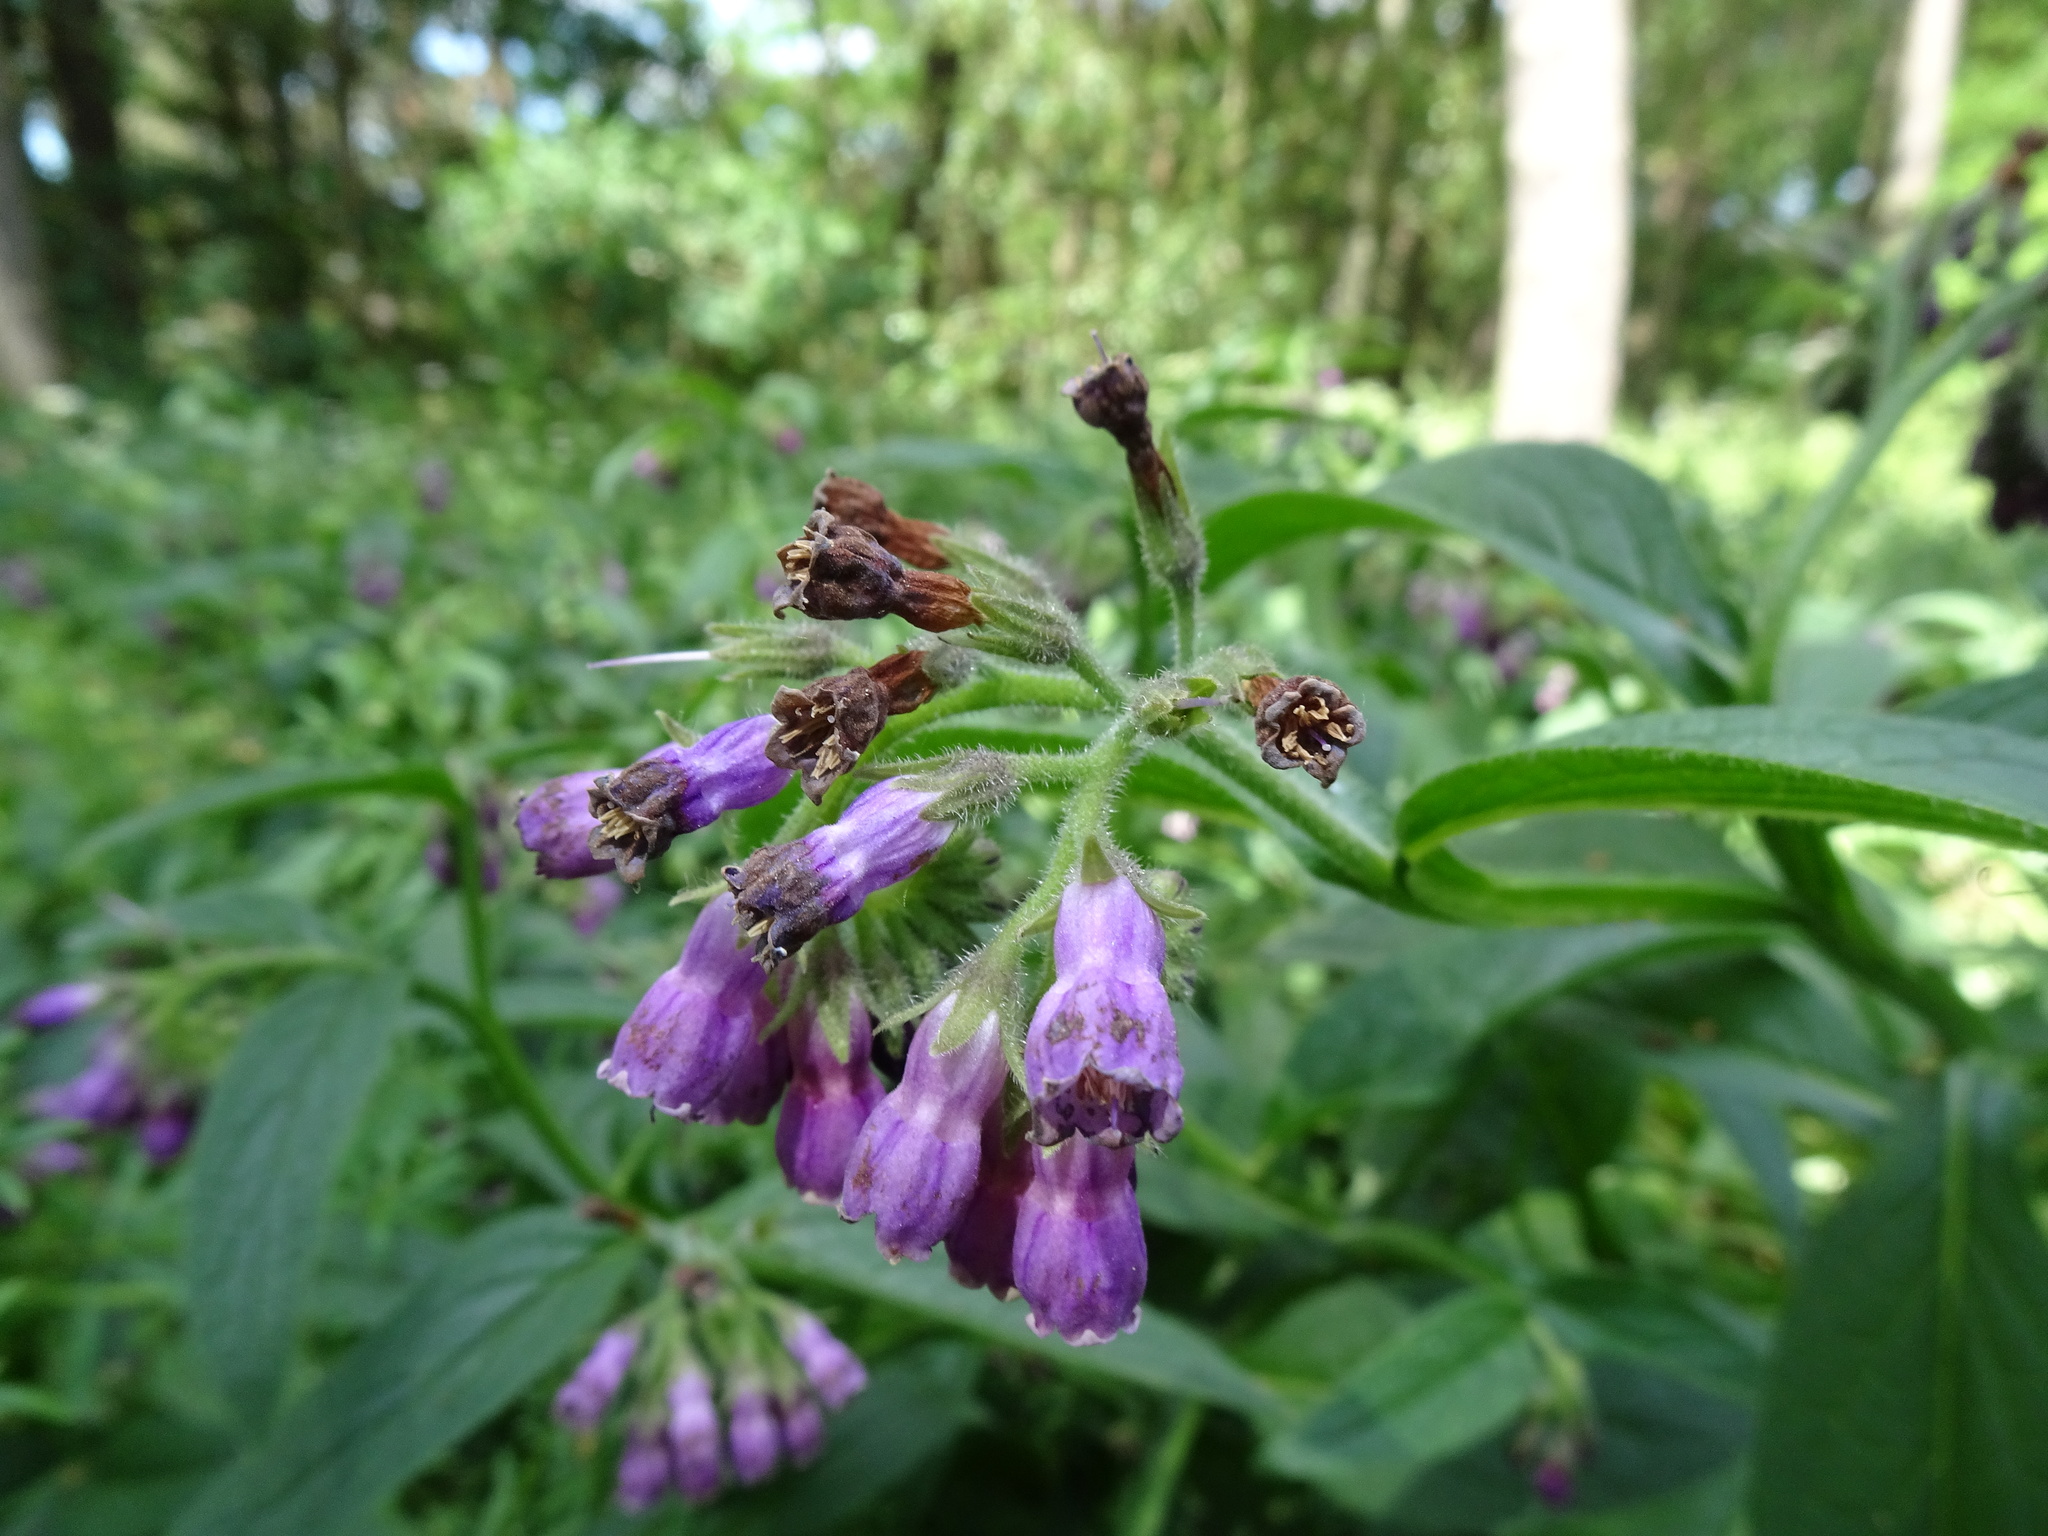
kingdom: Plantae
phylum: Tracheophyta
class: Magnoliopsida
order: Boraginales
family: Boraginaceae
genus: Symphytum
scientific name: Symphytum officinale
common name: Common comfrey
